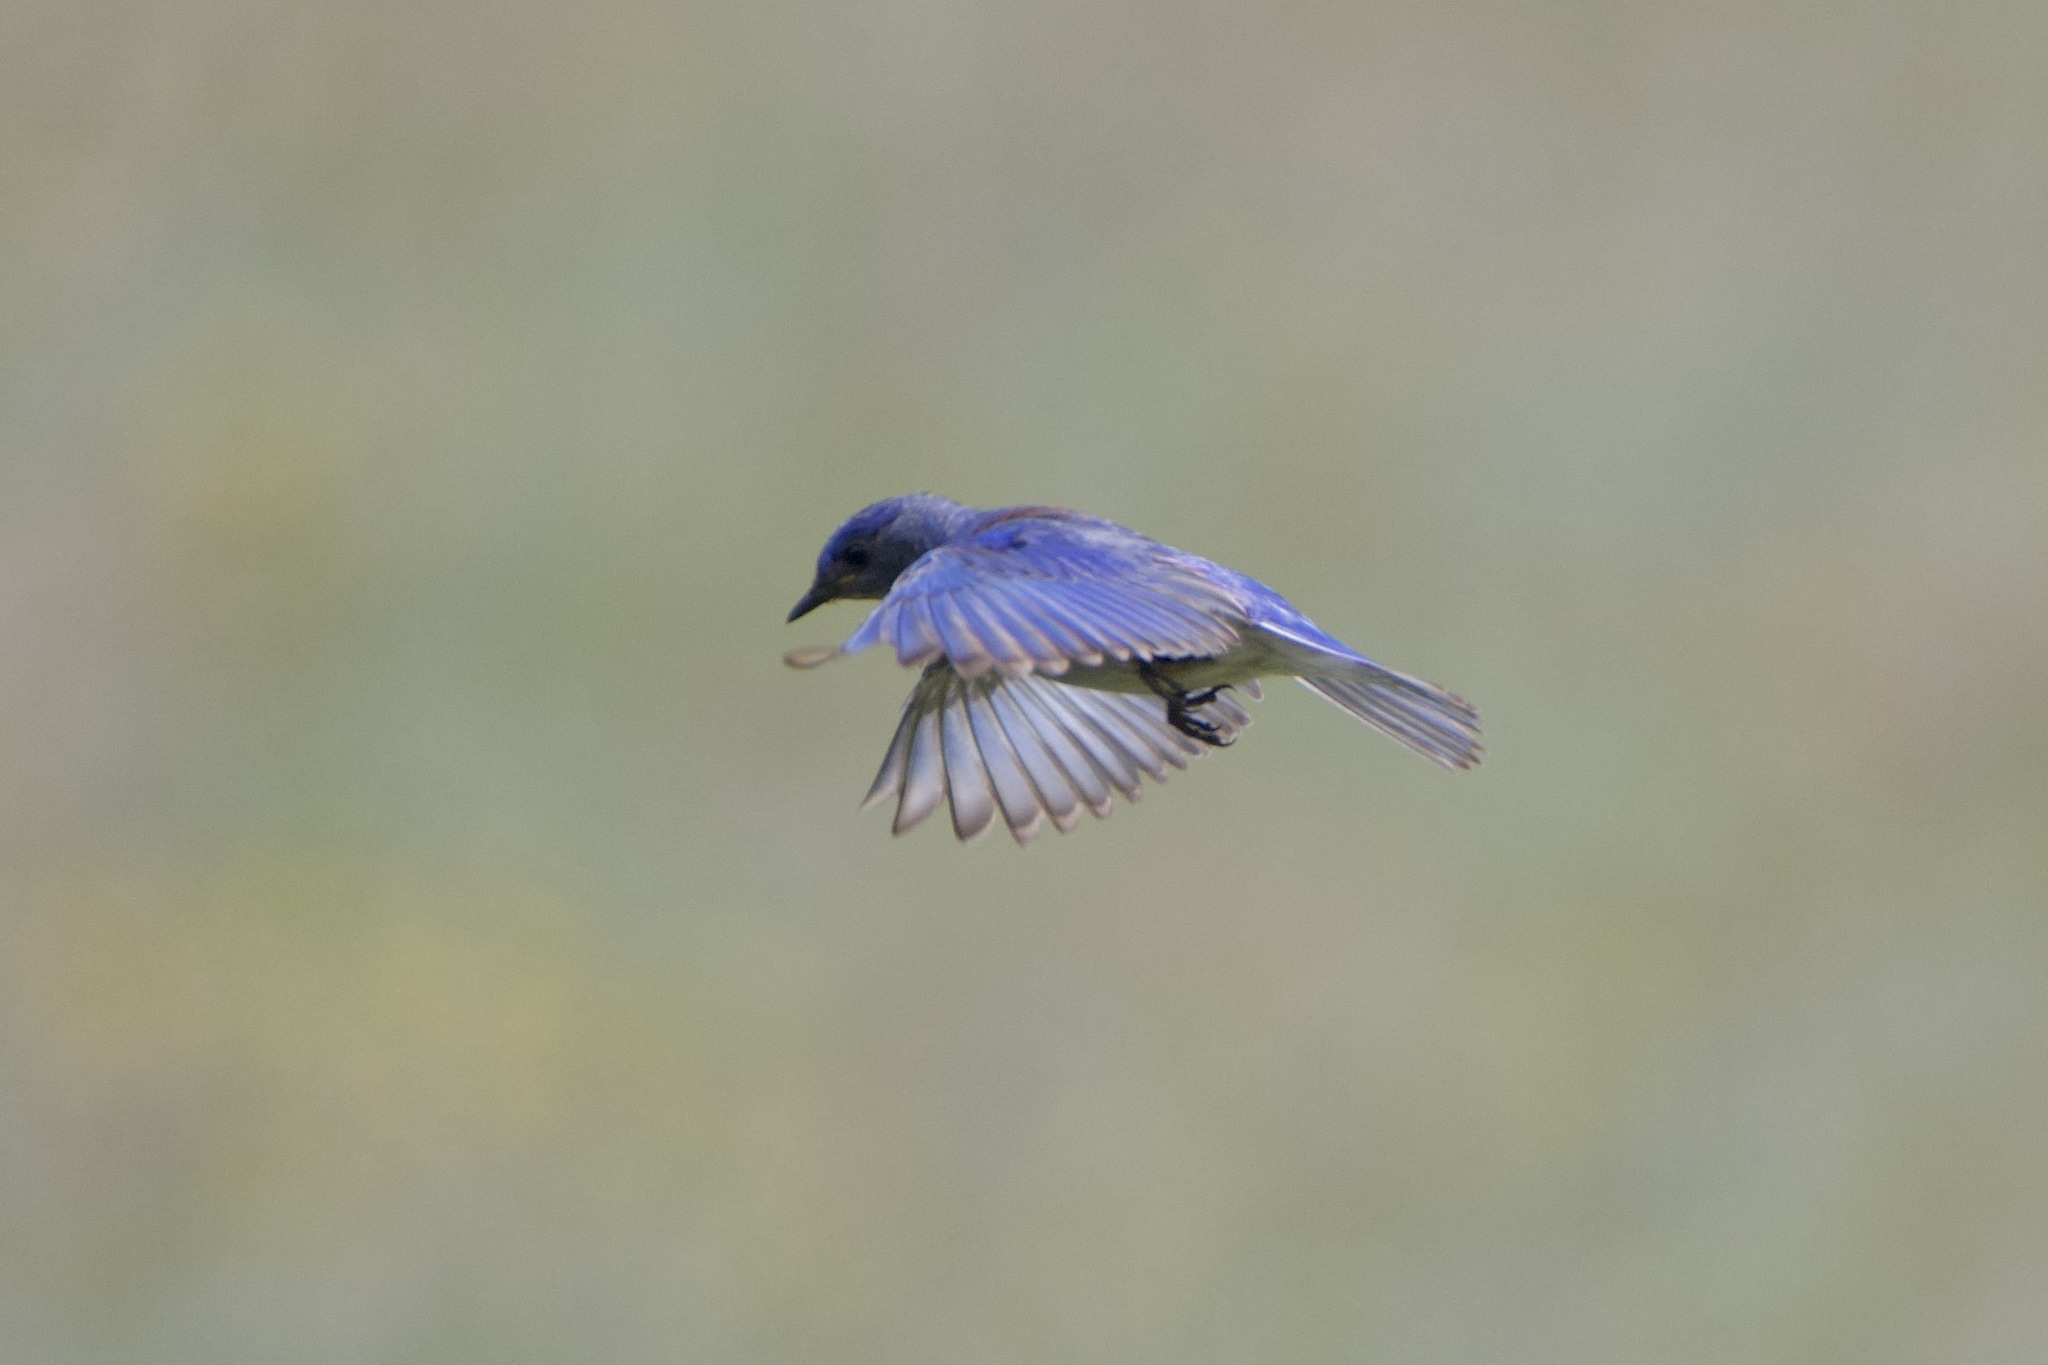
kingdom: Animalia
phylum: Chordata
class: Aves
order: Passeriformes
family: Turdidae
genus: Sialia
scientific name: Sialia mexicana
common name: Western bluebird
